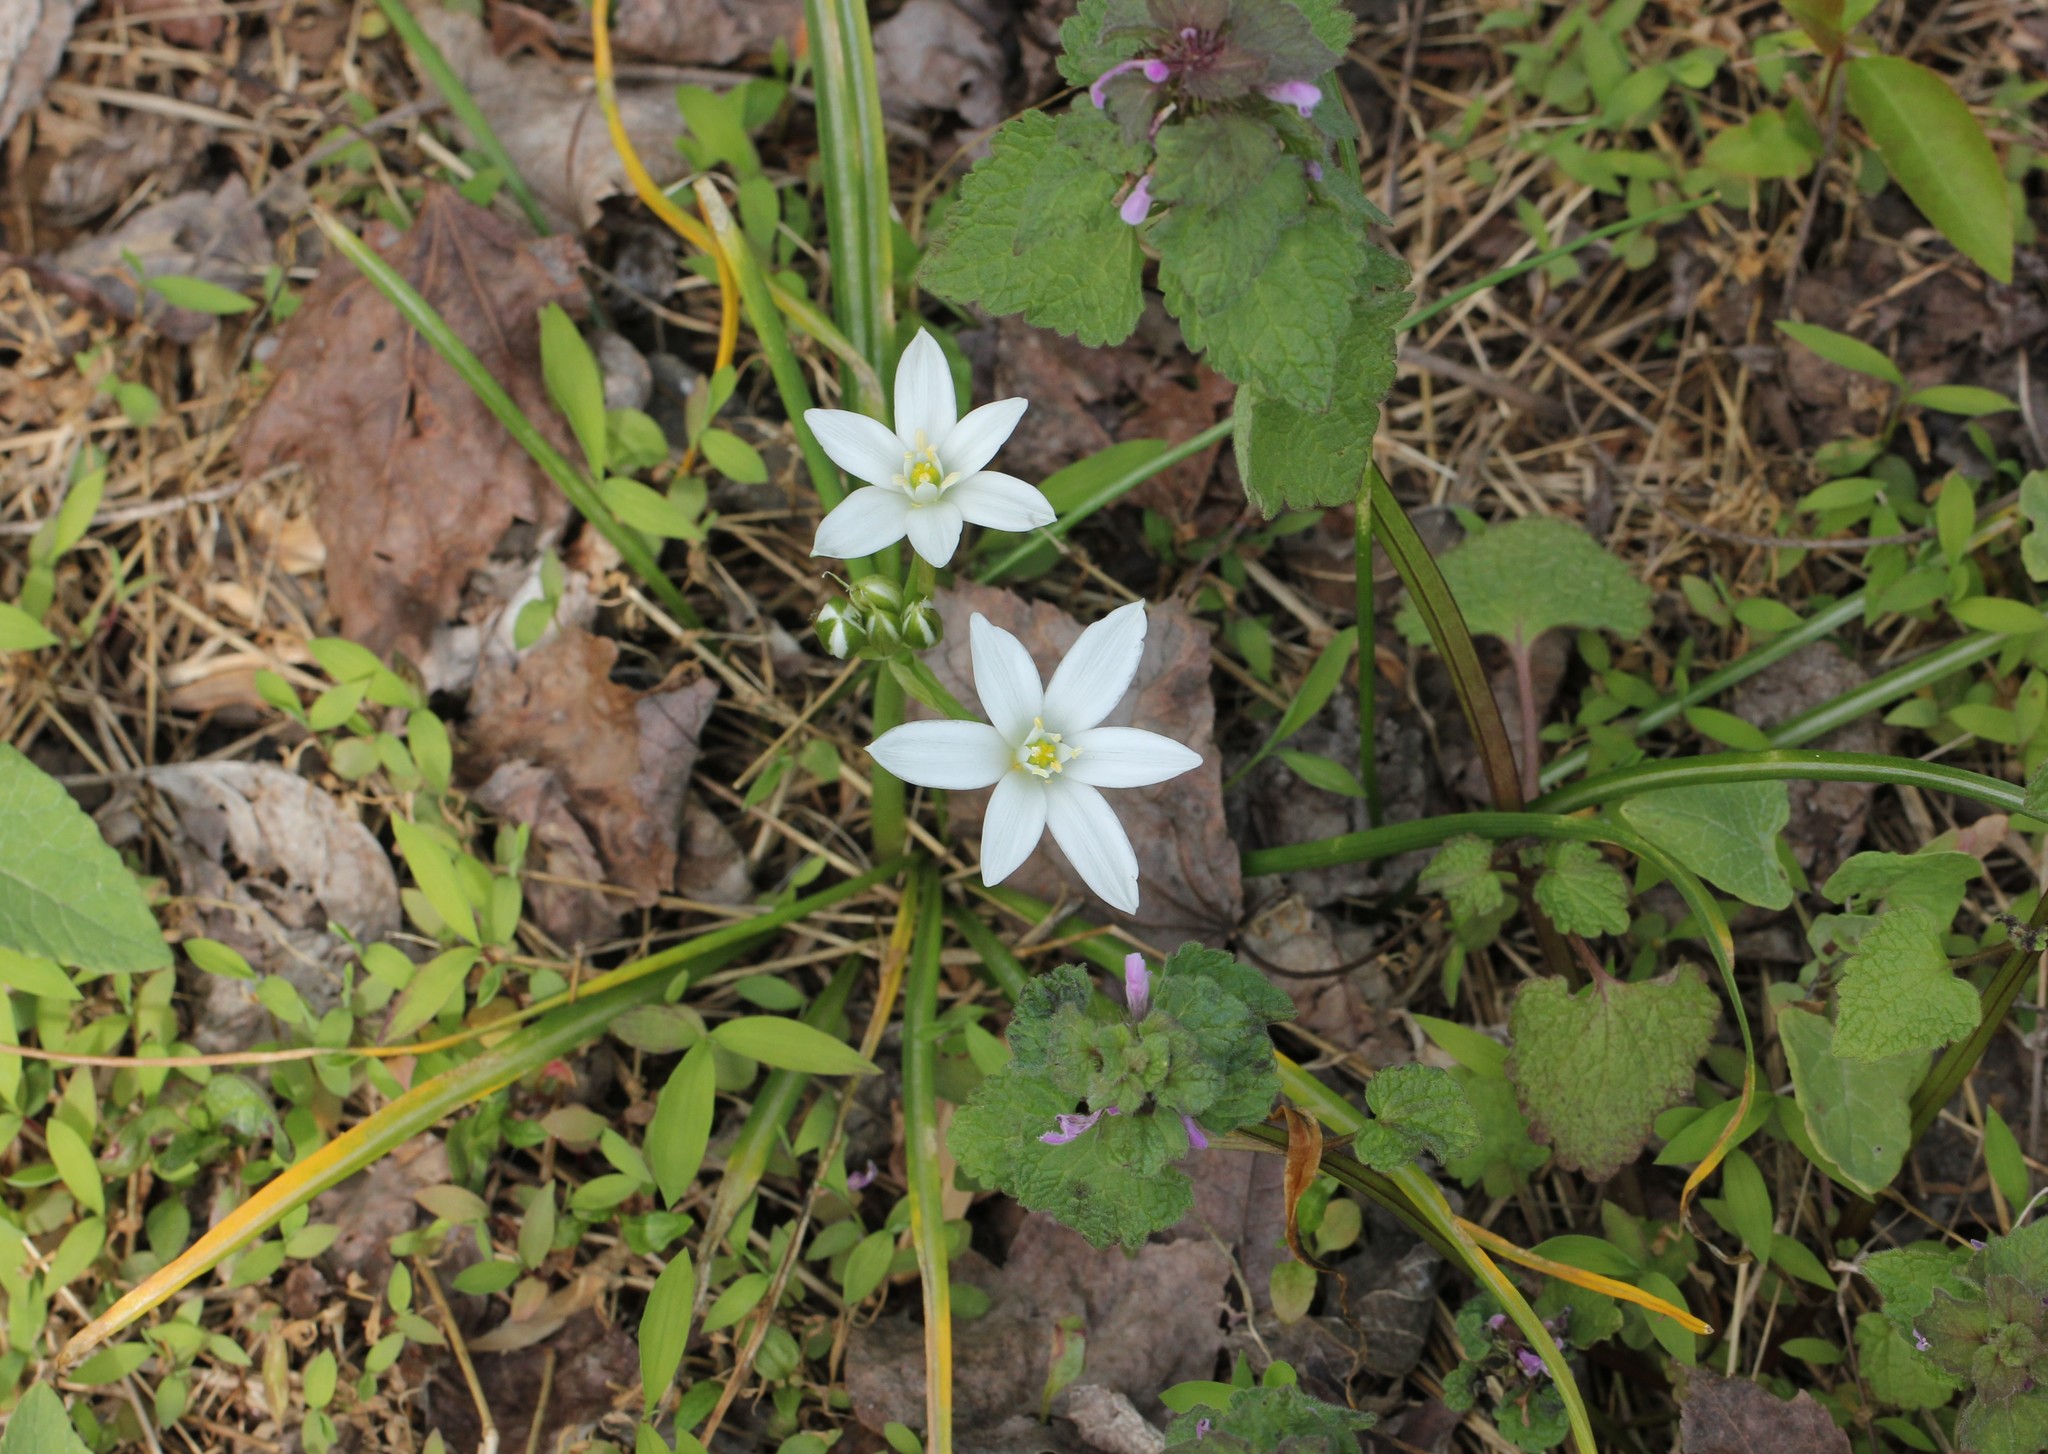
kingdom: Plantae
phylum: Tracheophyta
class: Liliopsida
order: Asparagales
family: Asparagaceae
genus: Ornithogalum
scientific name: Ornithogalum umbellatum
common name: Garden star-of-bethlehem
